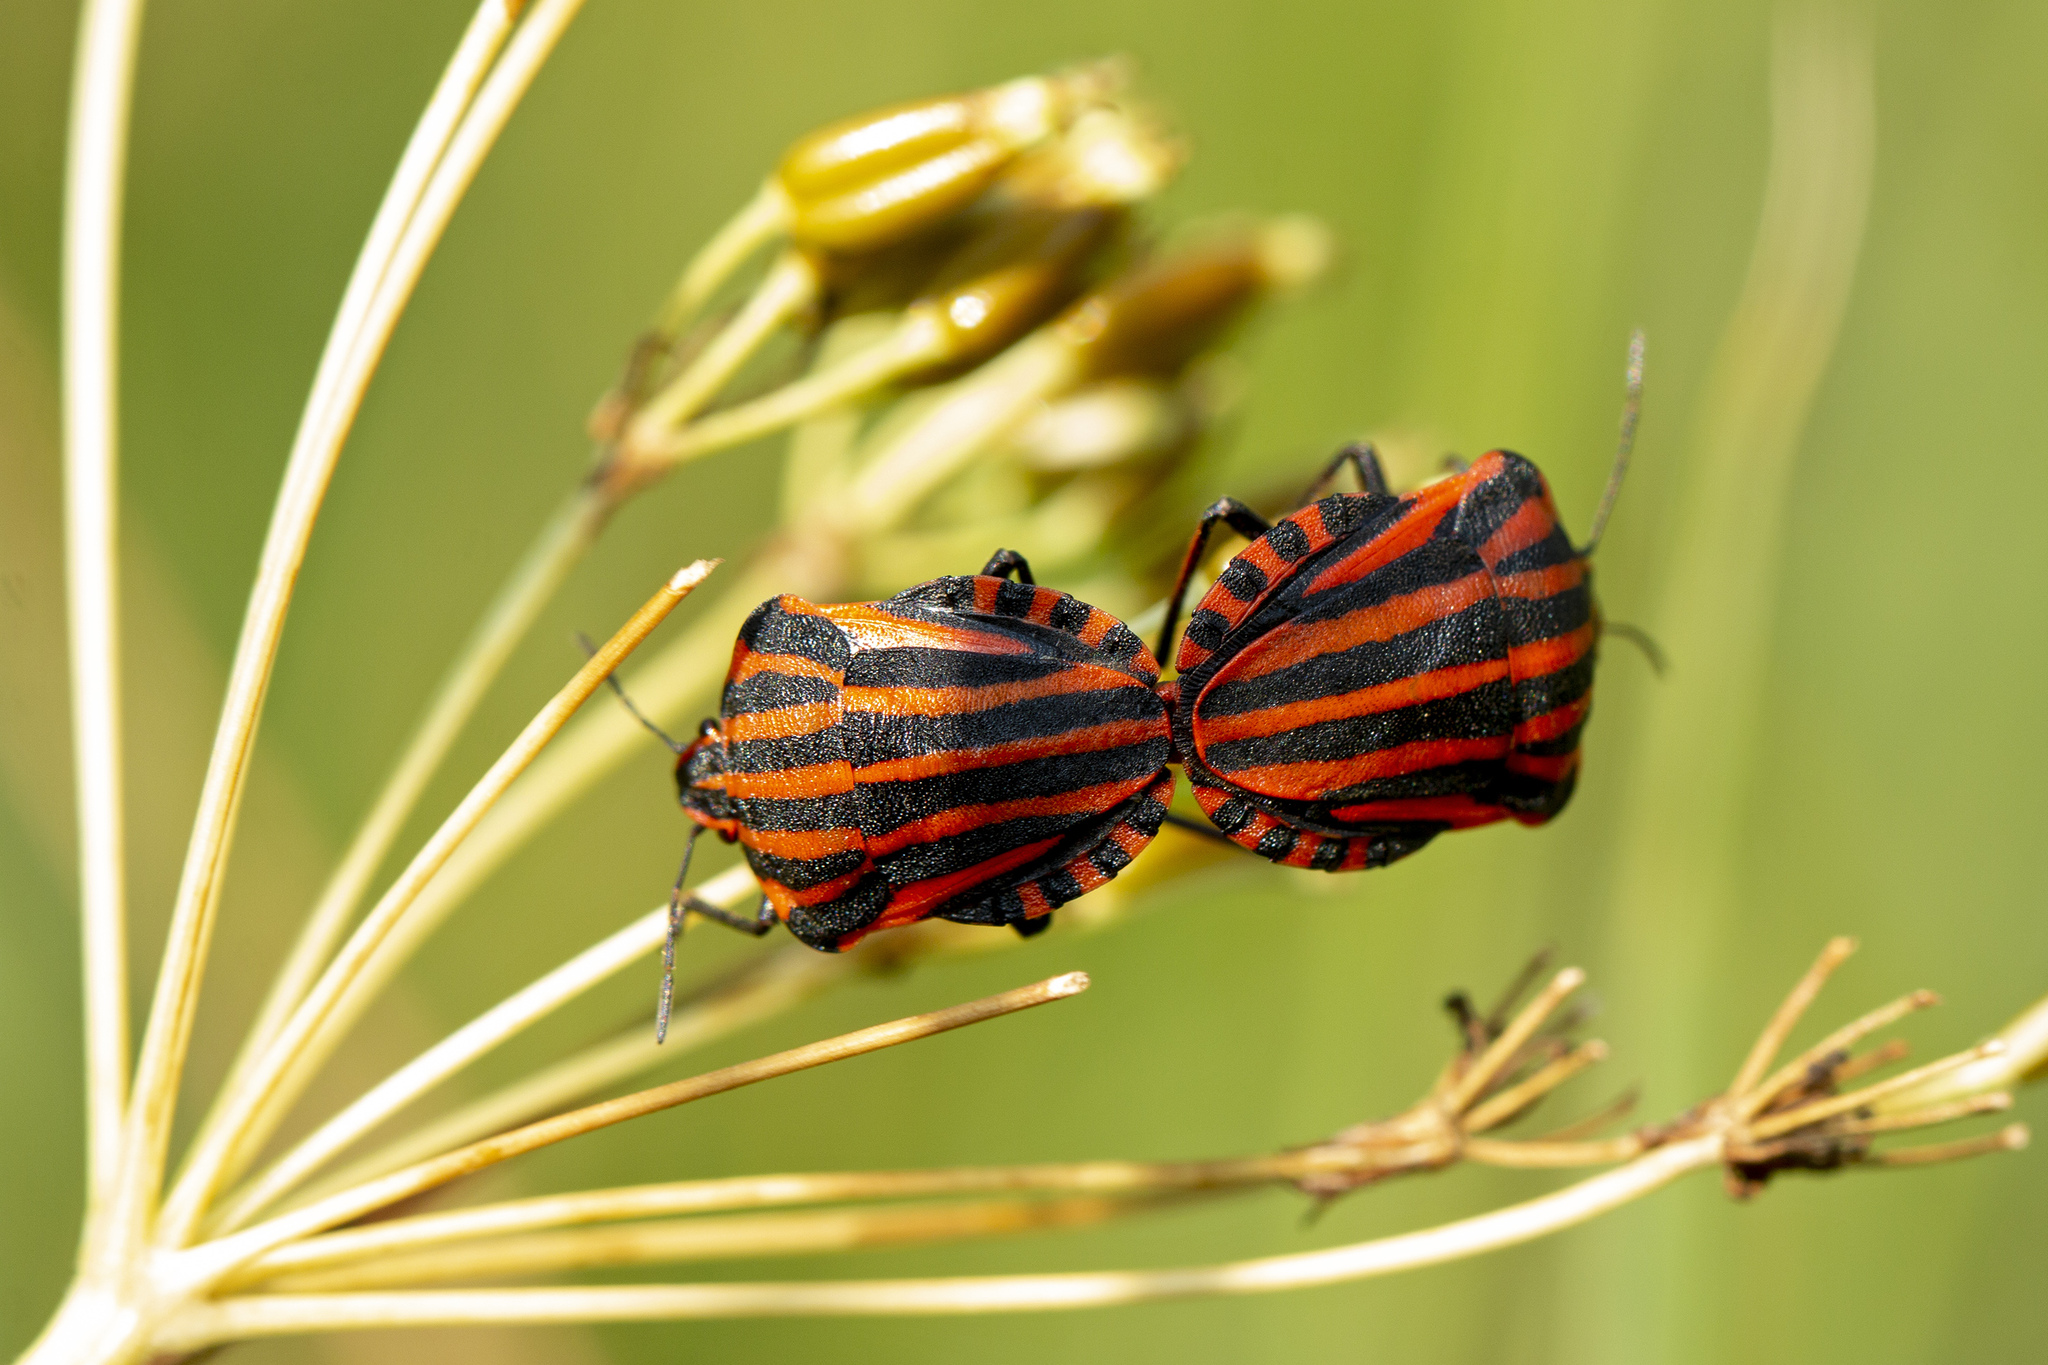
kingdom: Animalia
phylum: Arthropoda
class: Insecta
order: Hemiptera
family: Pentatomidae
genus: Graphosoma
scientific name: Graphosoma italicum
